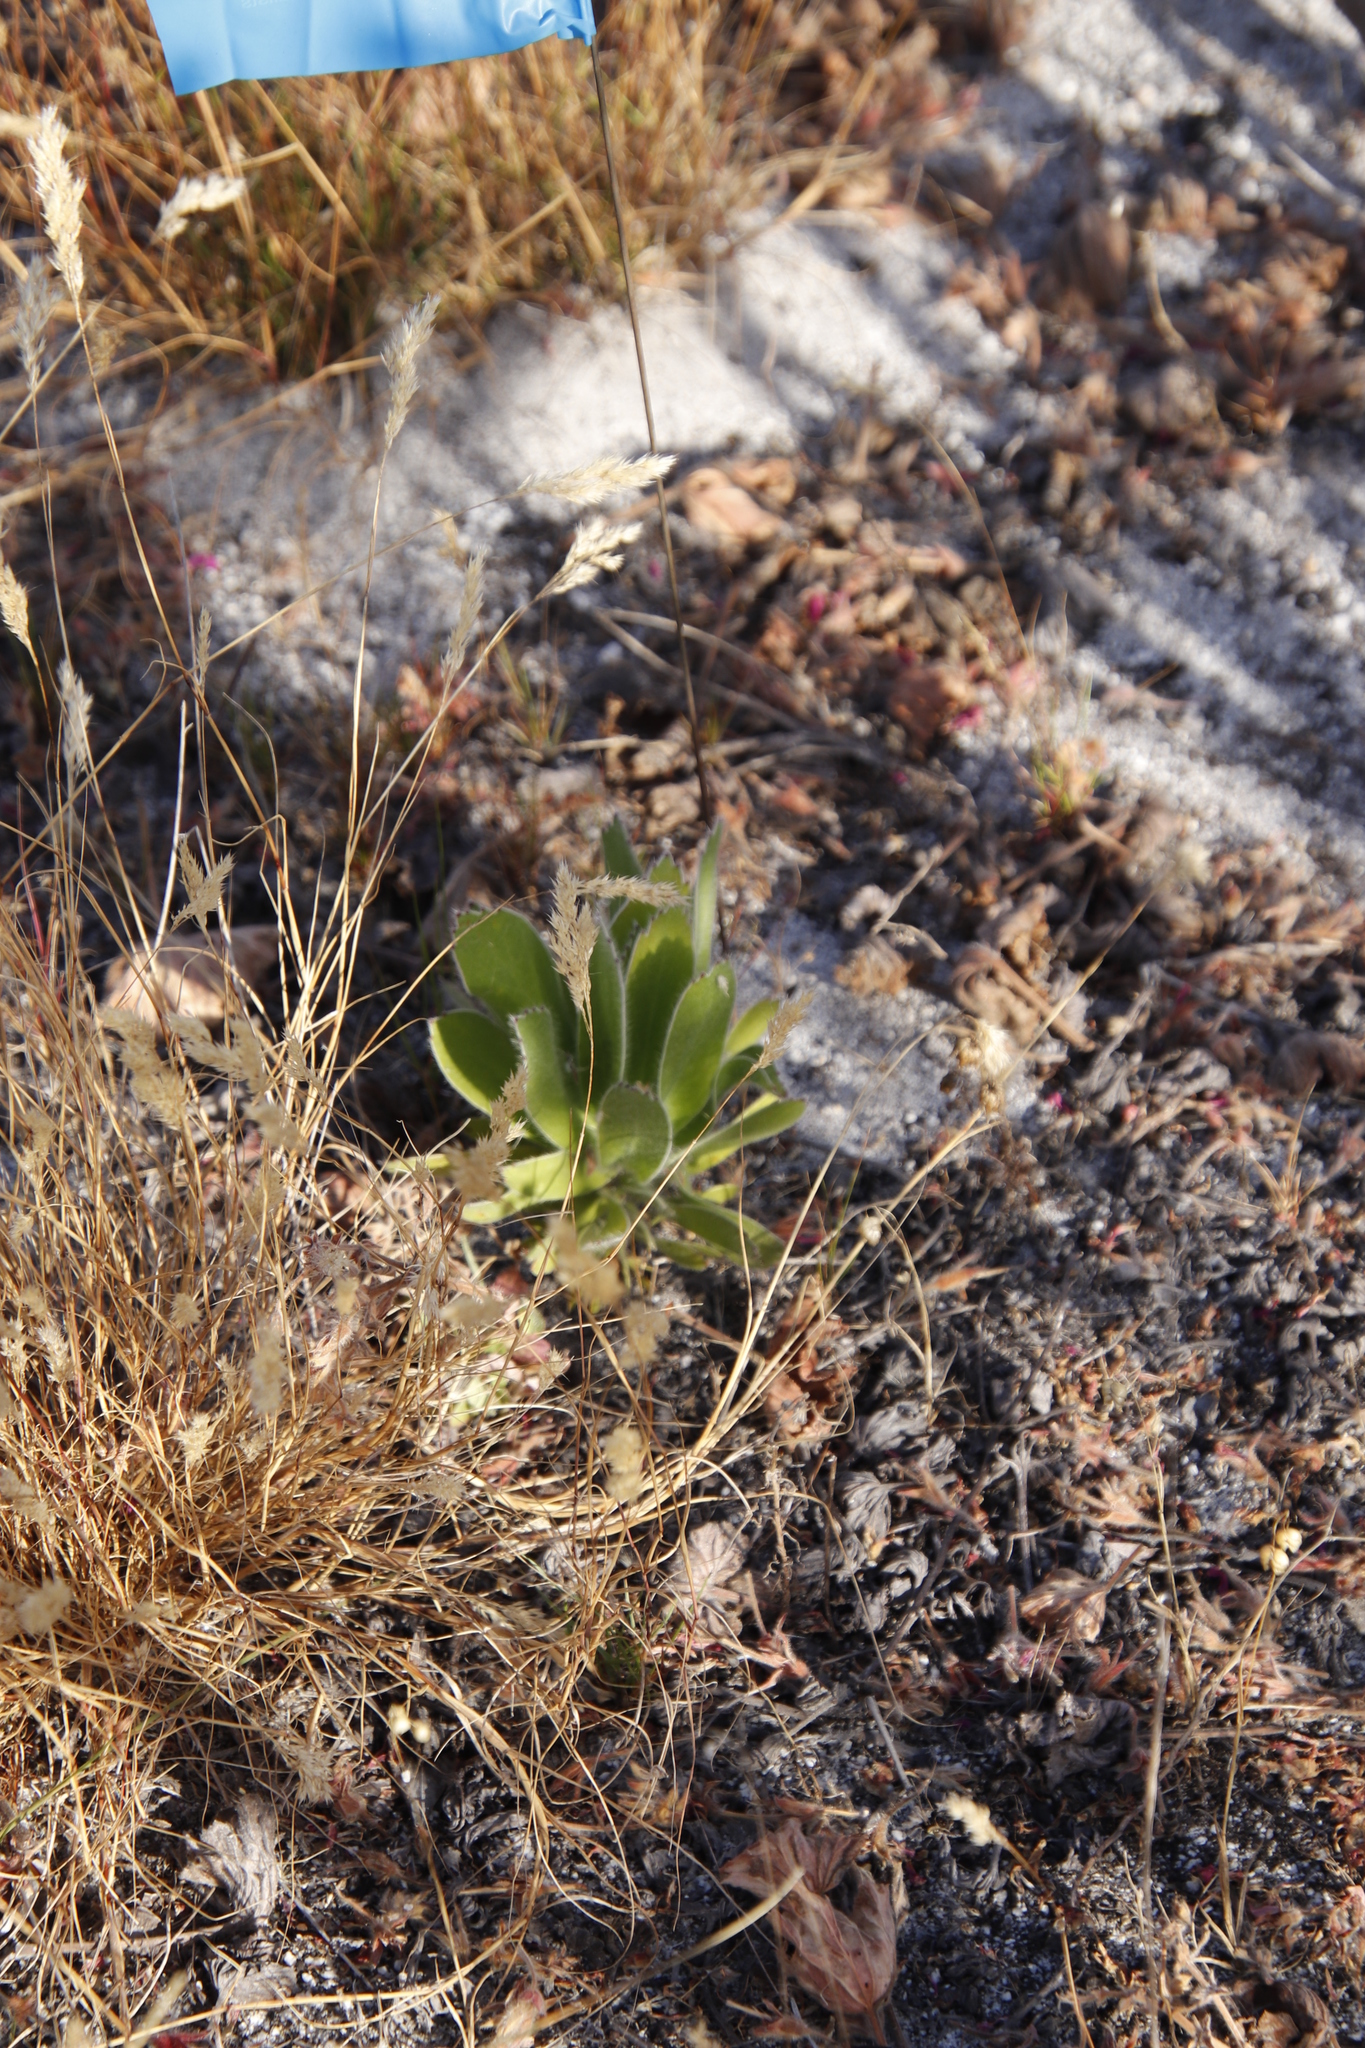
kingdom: Plantae
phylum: Tracheophyta
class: Magnoliopsida
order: Proteales
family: Proteaceae
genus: Leucospermum
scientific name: Leucospermum conocarpodendron
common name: Tree pincushion
